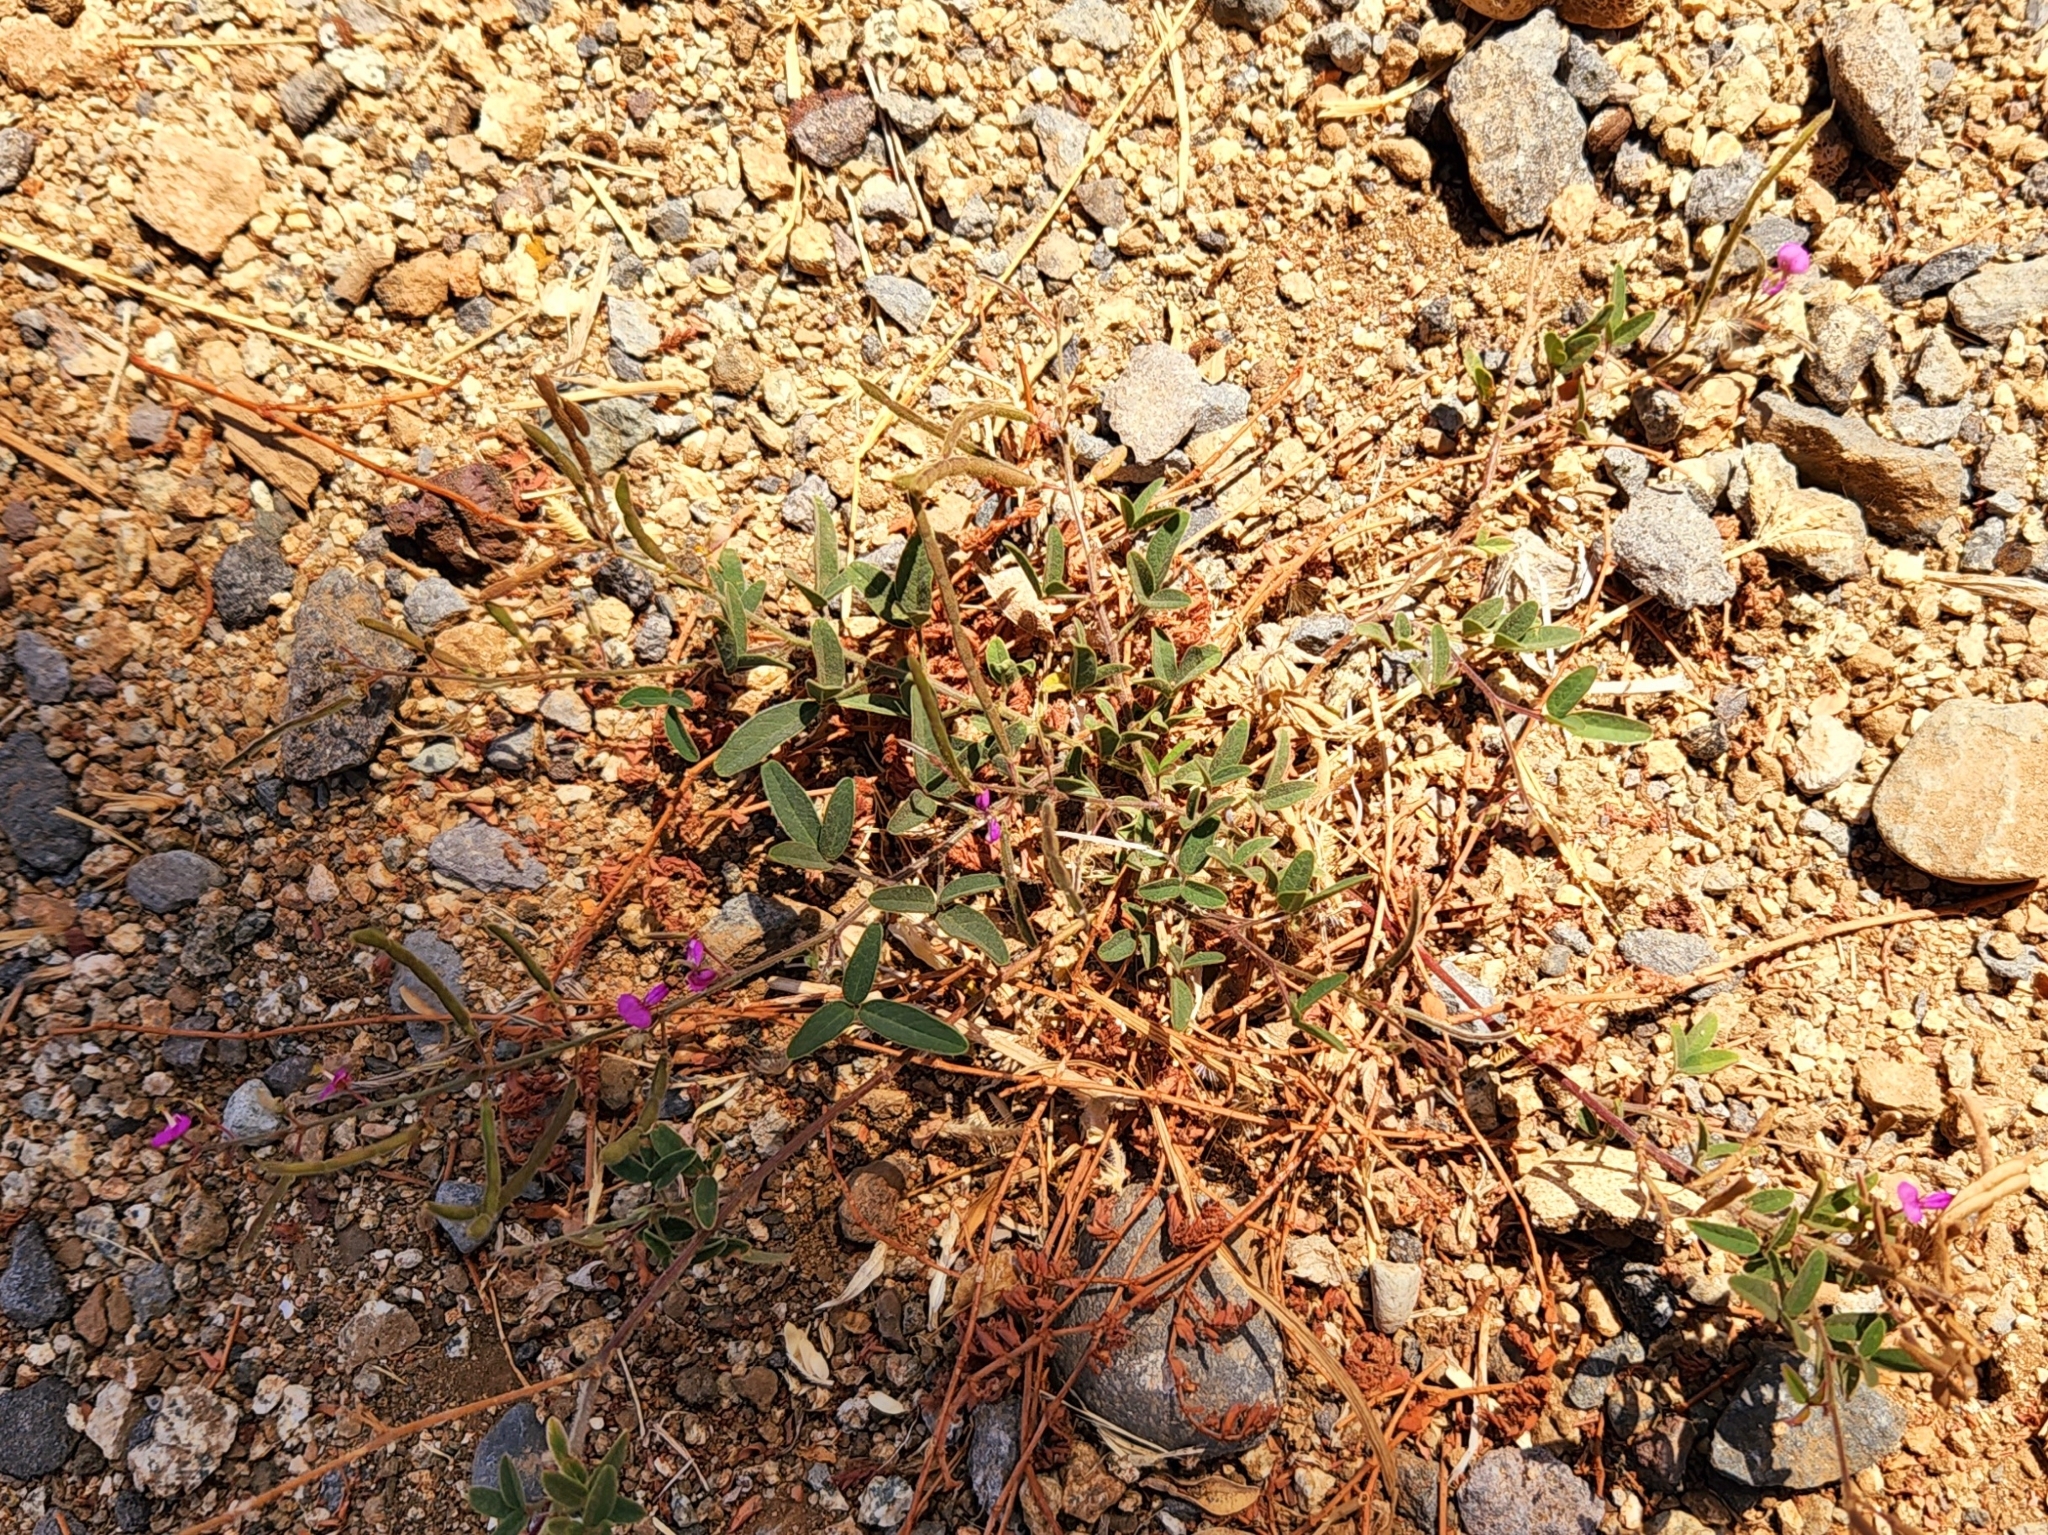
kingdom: Plantae
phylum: Tracheophyta
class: Magnoliopsida
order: Fabales
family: Fabaceae
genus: Desmodium
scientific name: Desmodium scorpiurus
